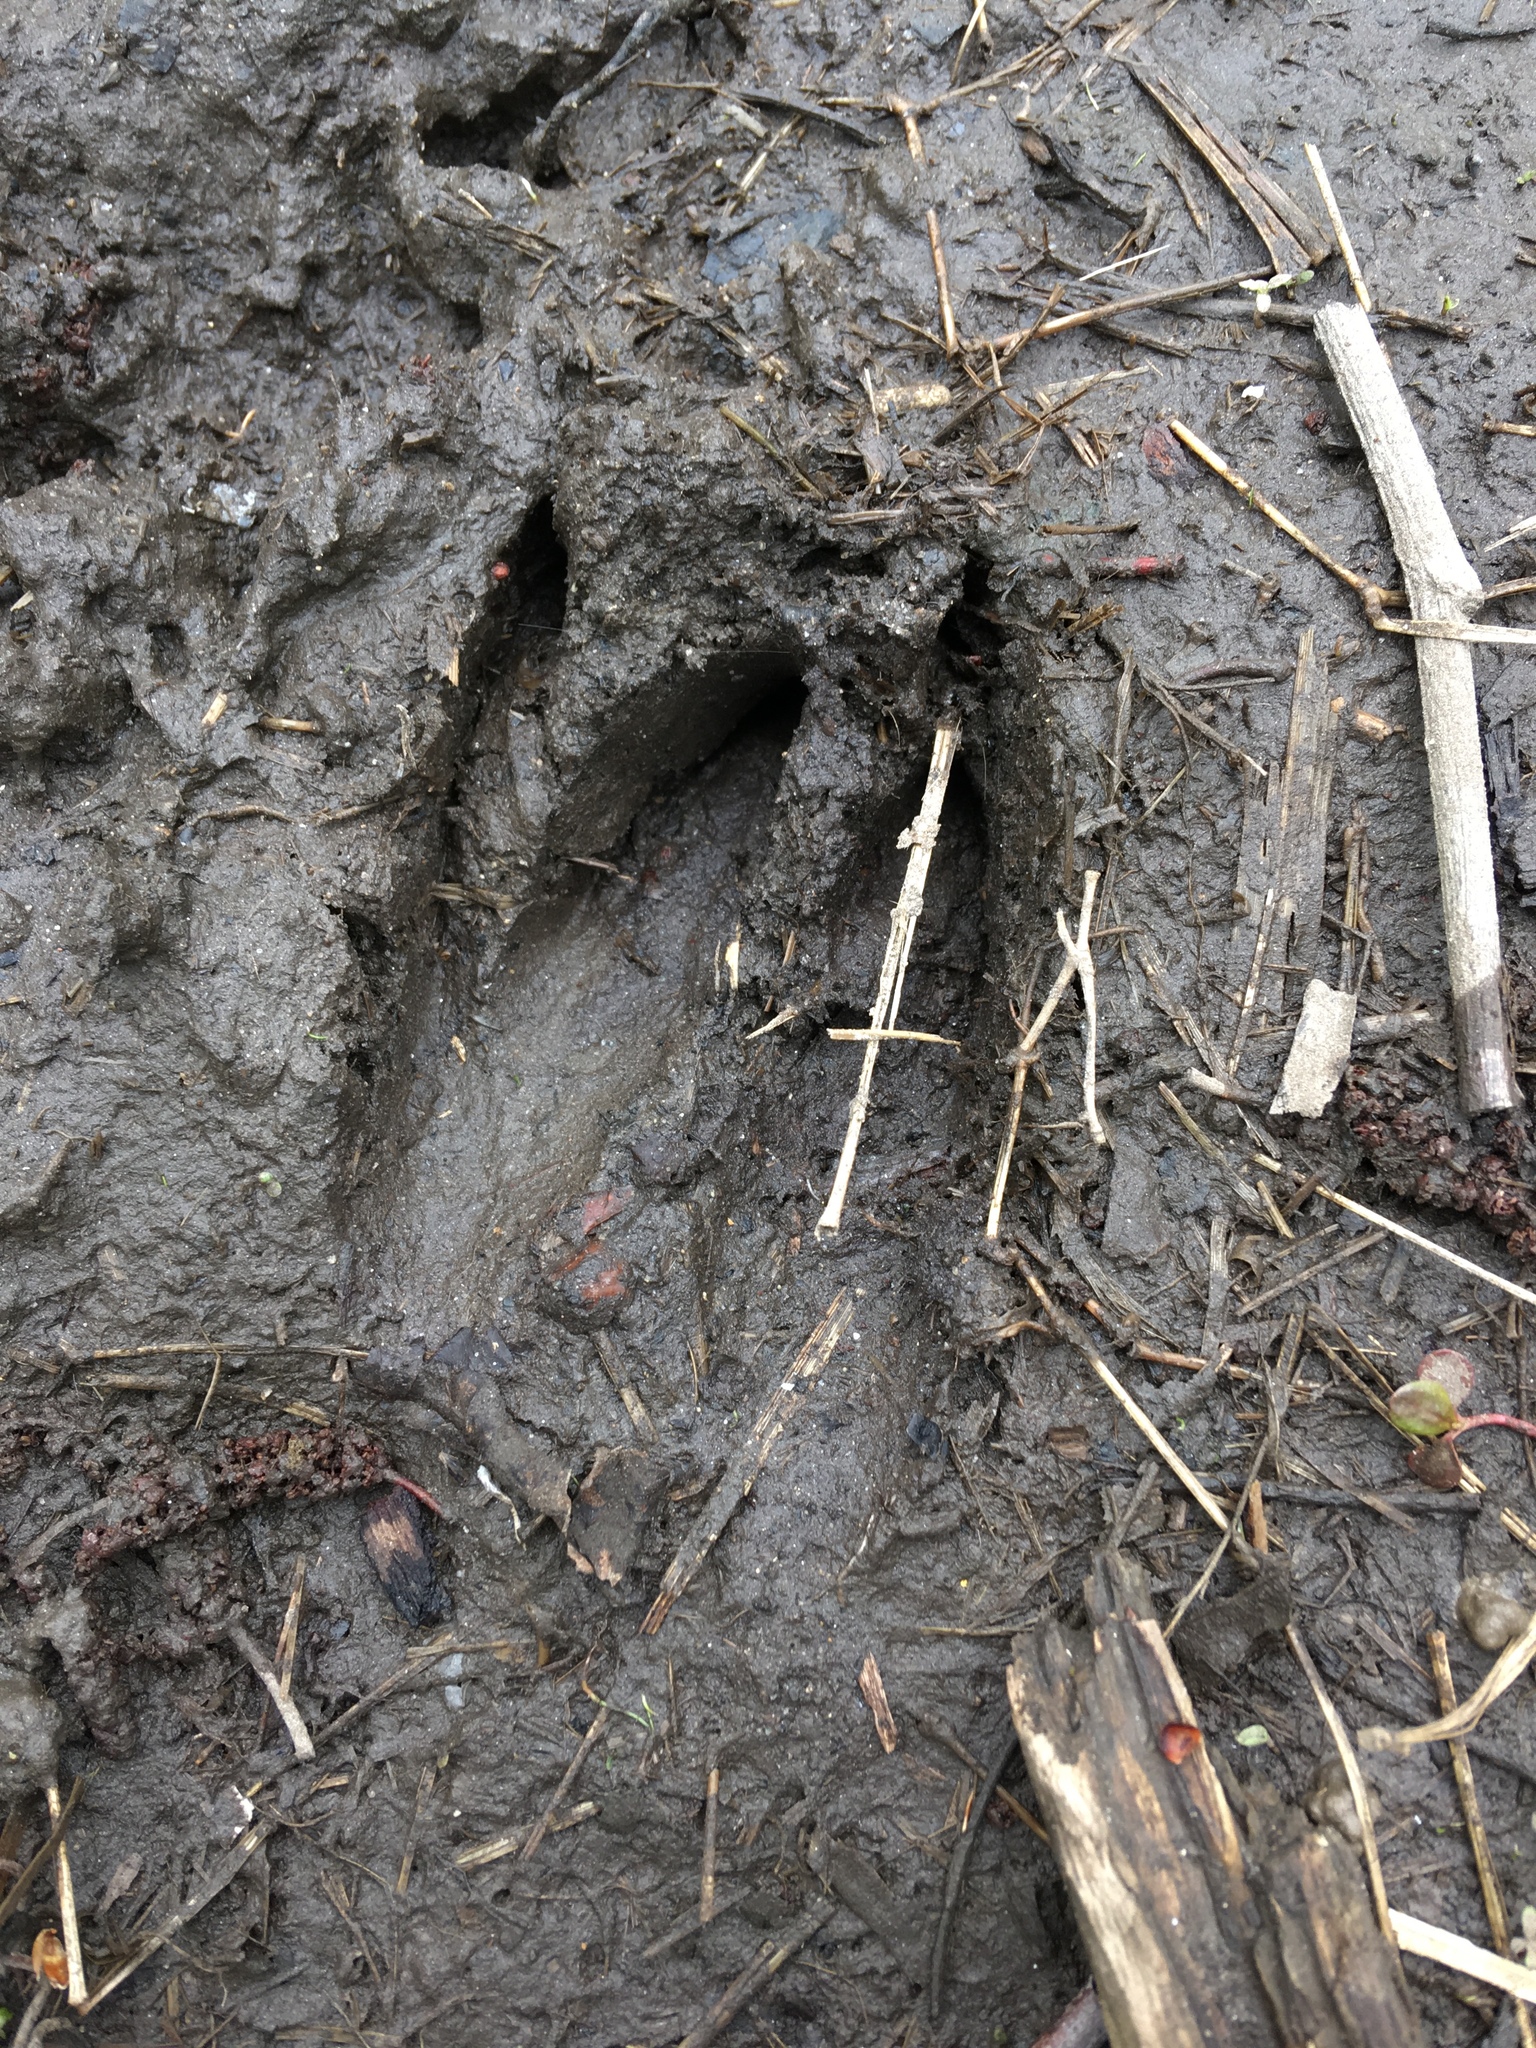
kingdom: Animalia
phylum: Chordata
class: Mammalia
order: Artiodactyla
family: Cervidae
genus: Odocoileus
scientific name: Odocoileus virginianus
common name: White-tailed deer
